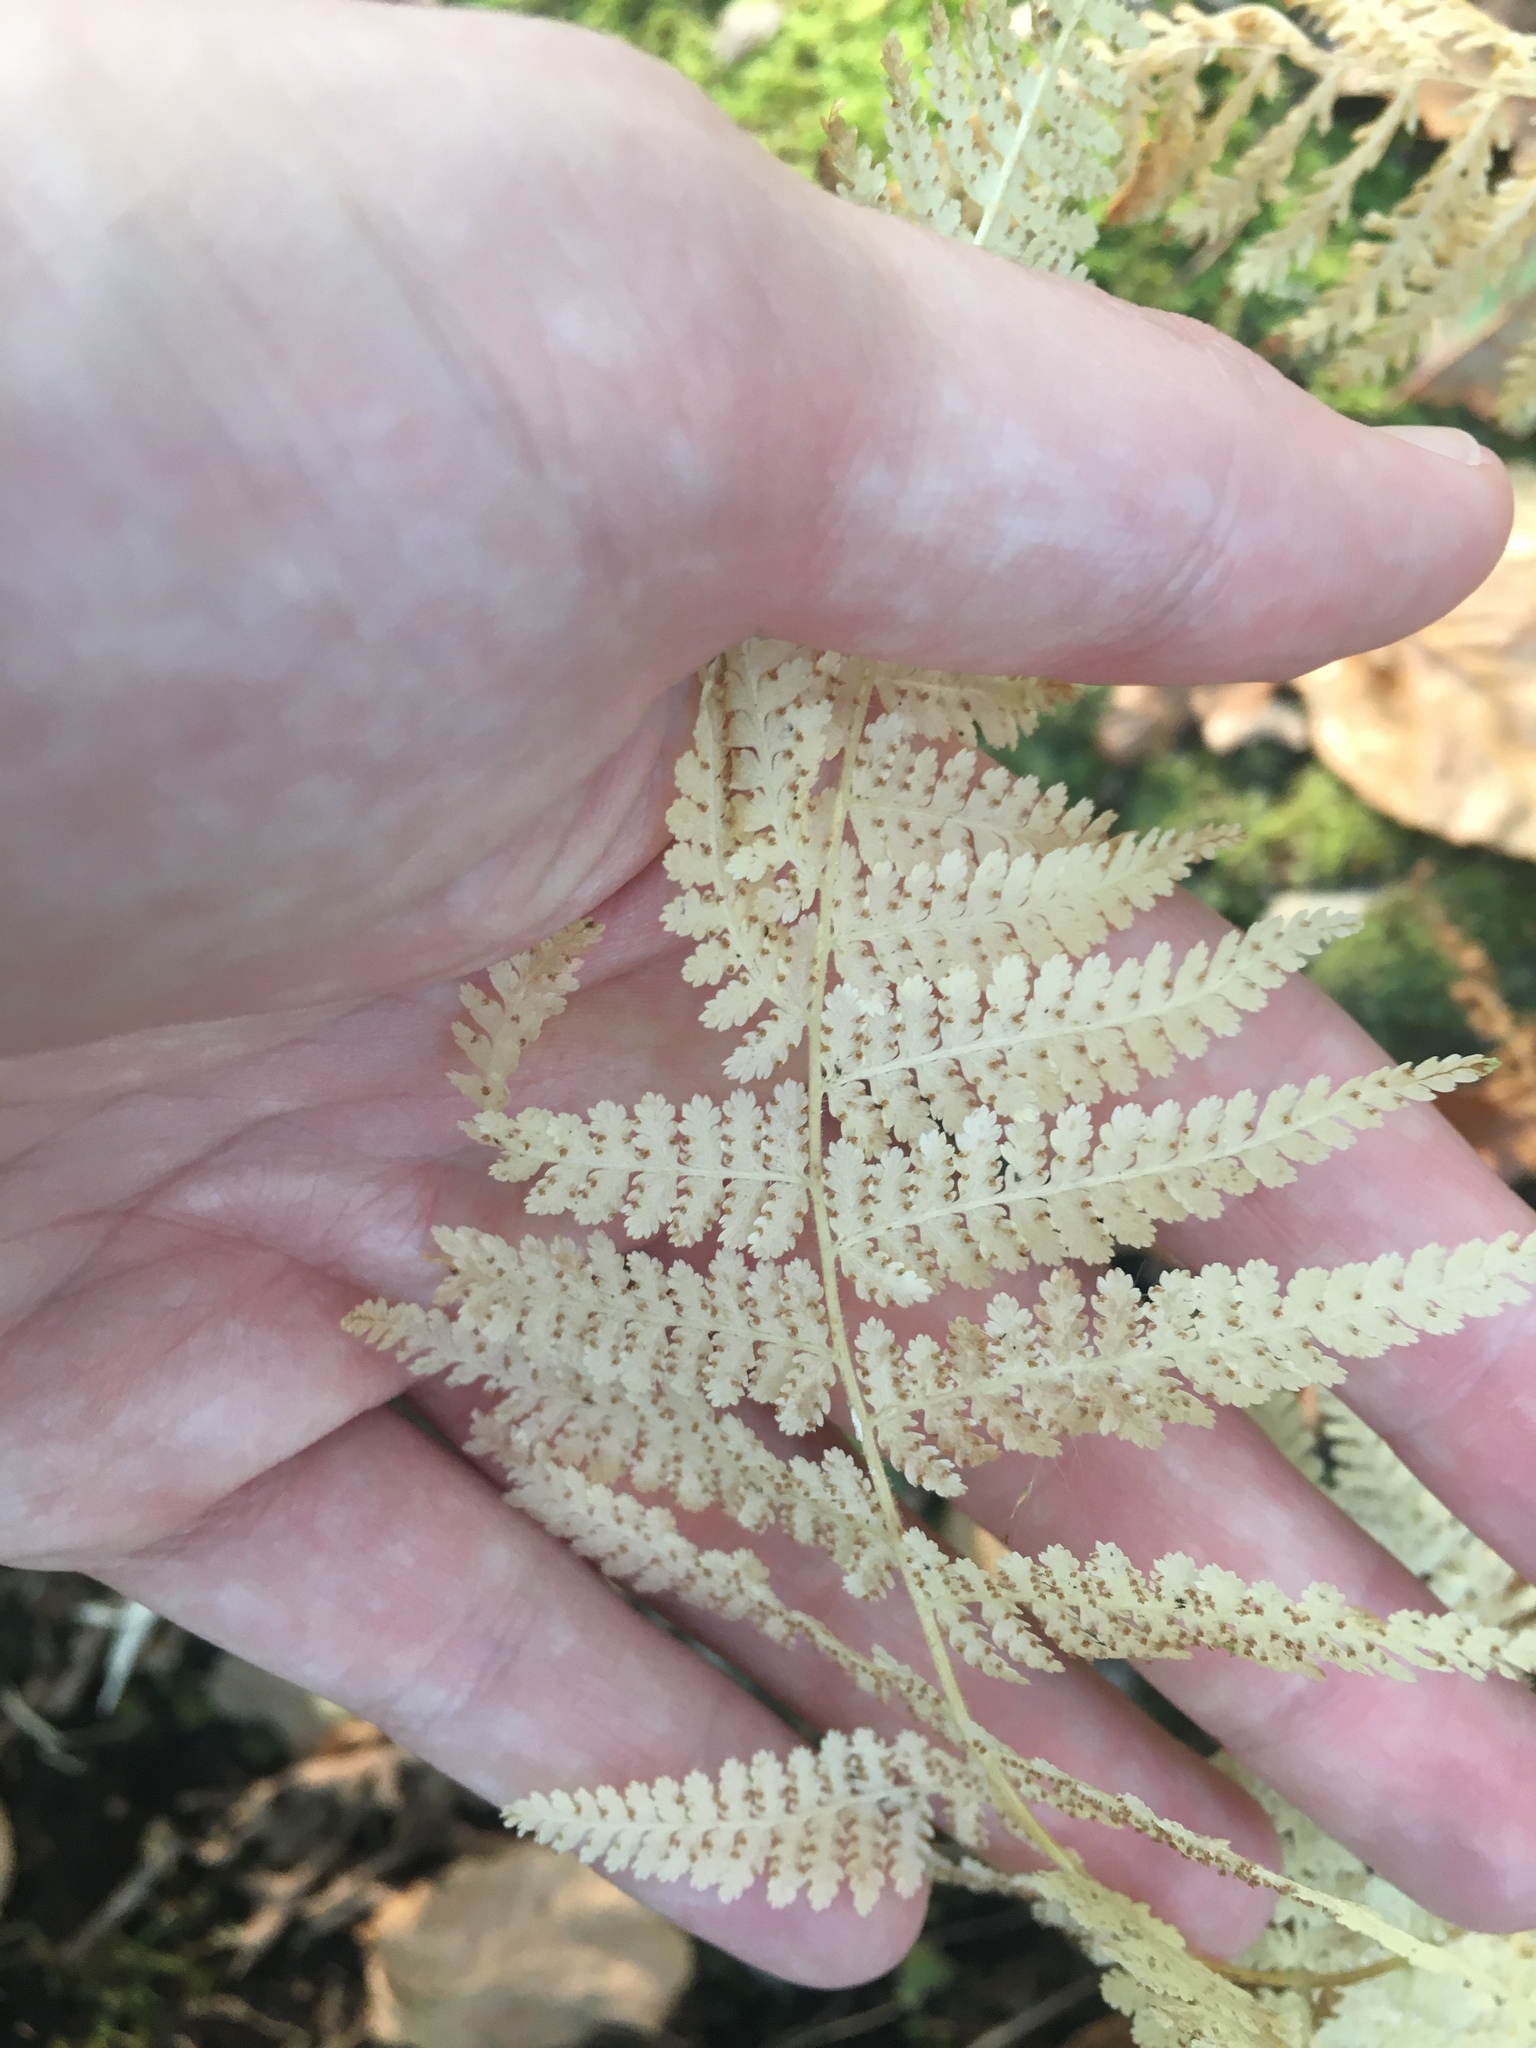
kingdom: Plantae
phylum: Tracheophyta
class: Polypodiopsida
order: Polypodiales
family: Dennstaedtiaceae
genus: Sitobolium
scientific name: Sitobolium punctilobum
